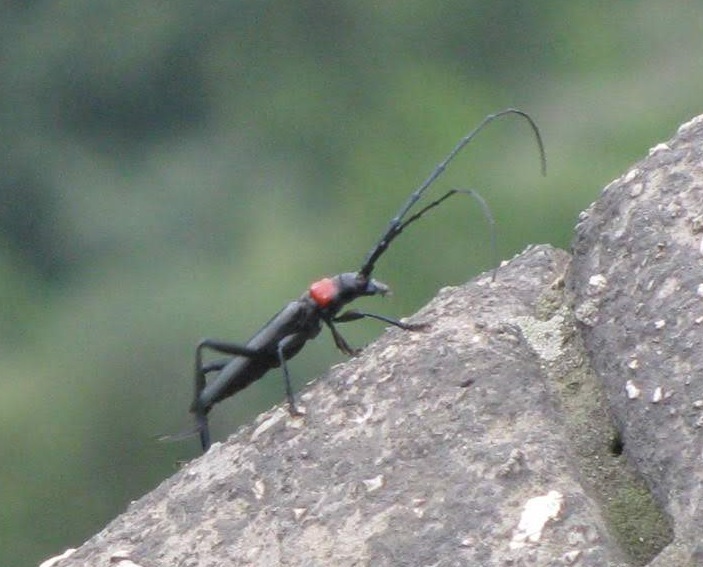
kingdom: Animalia
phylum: Arthropoda
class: Insecta
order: Coleoptera
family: Cerambycidae
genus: Aromia
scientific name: Aromia bungii
